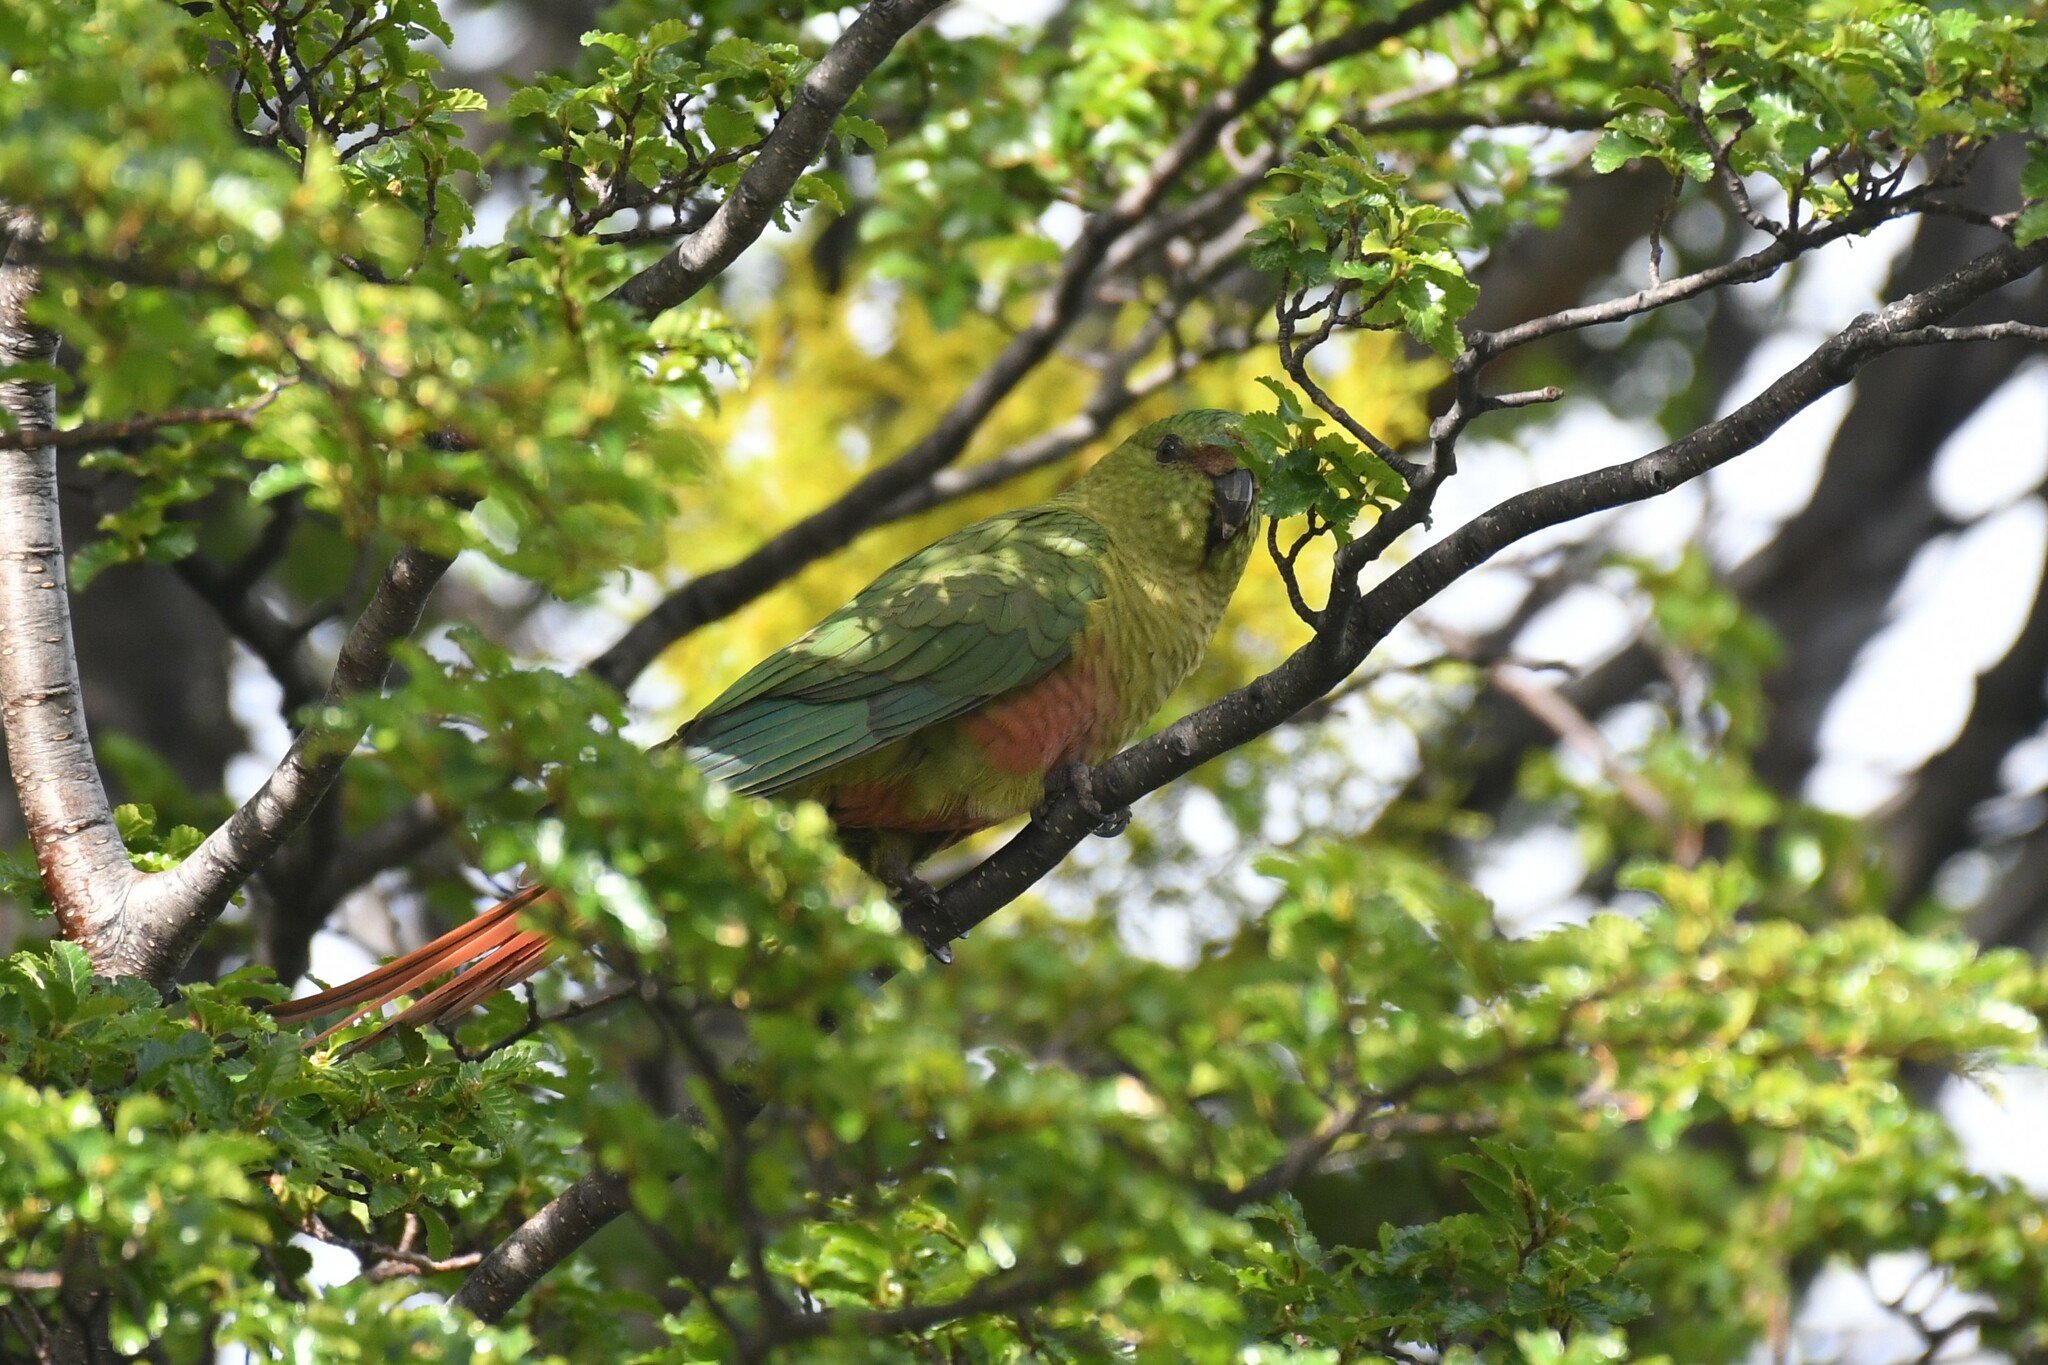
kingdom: Animalia
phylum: Chordata
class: Aves
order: Psittaciformes
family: Psittacidae
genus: Enicognathus
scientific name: Enicognathus ferrugineus
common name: Austral parakeet
